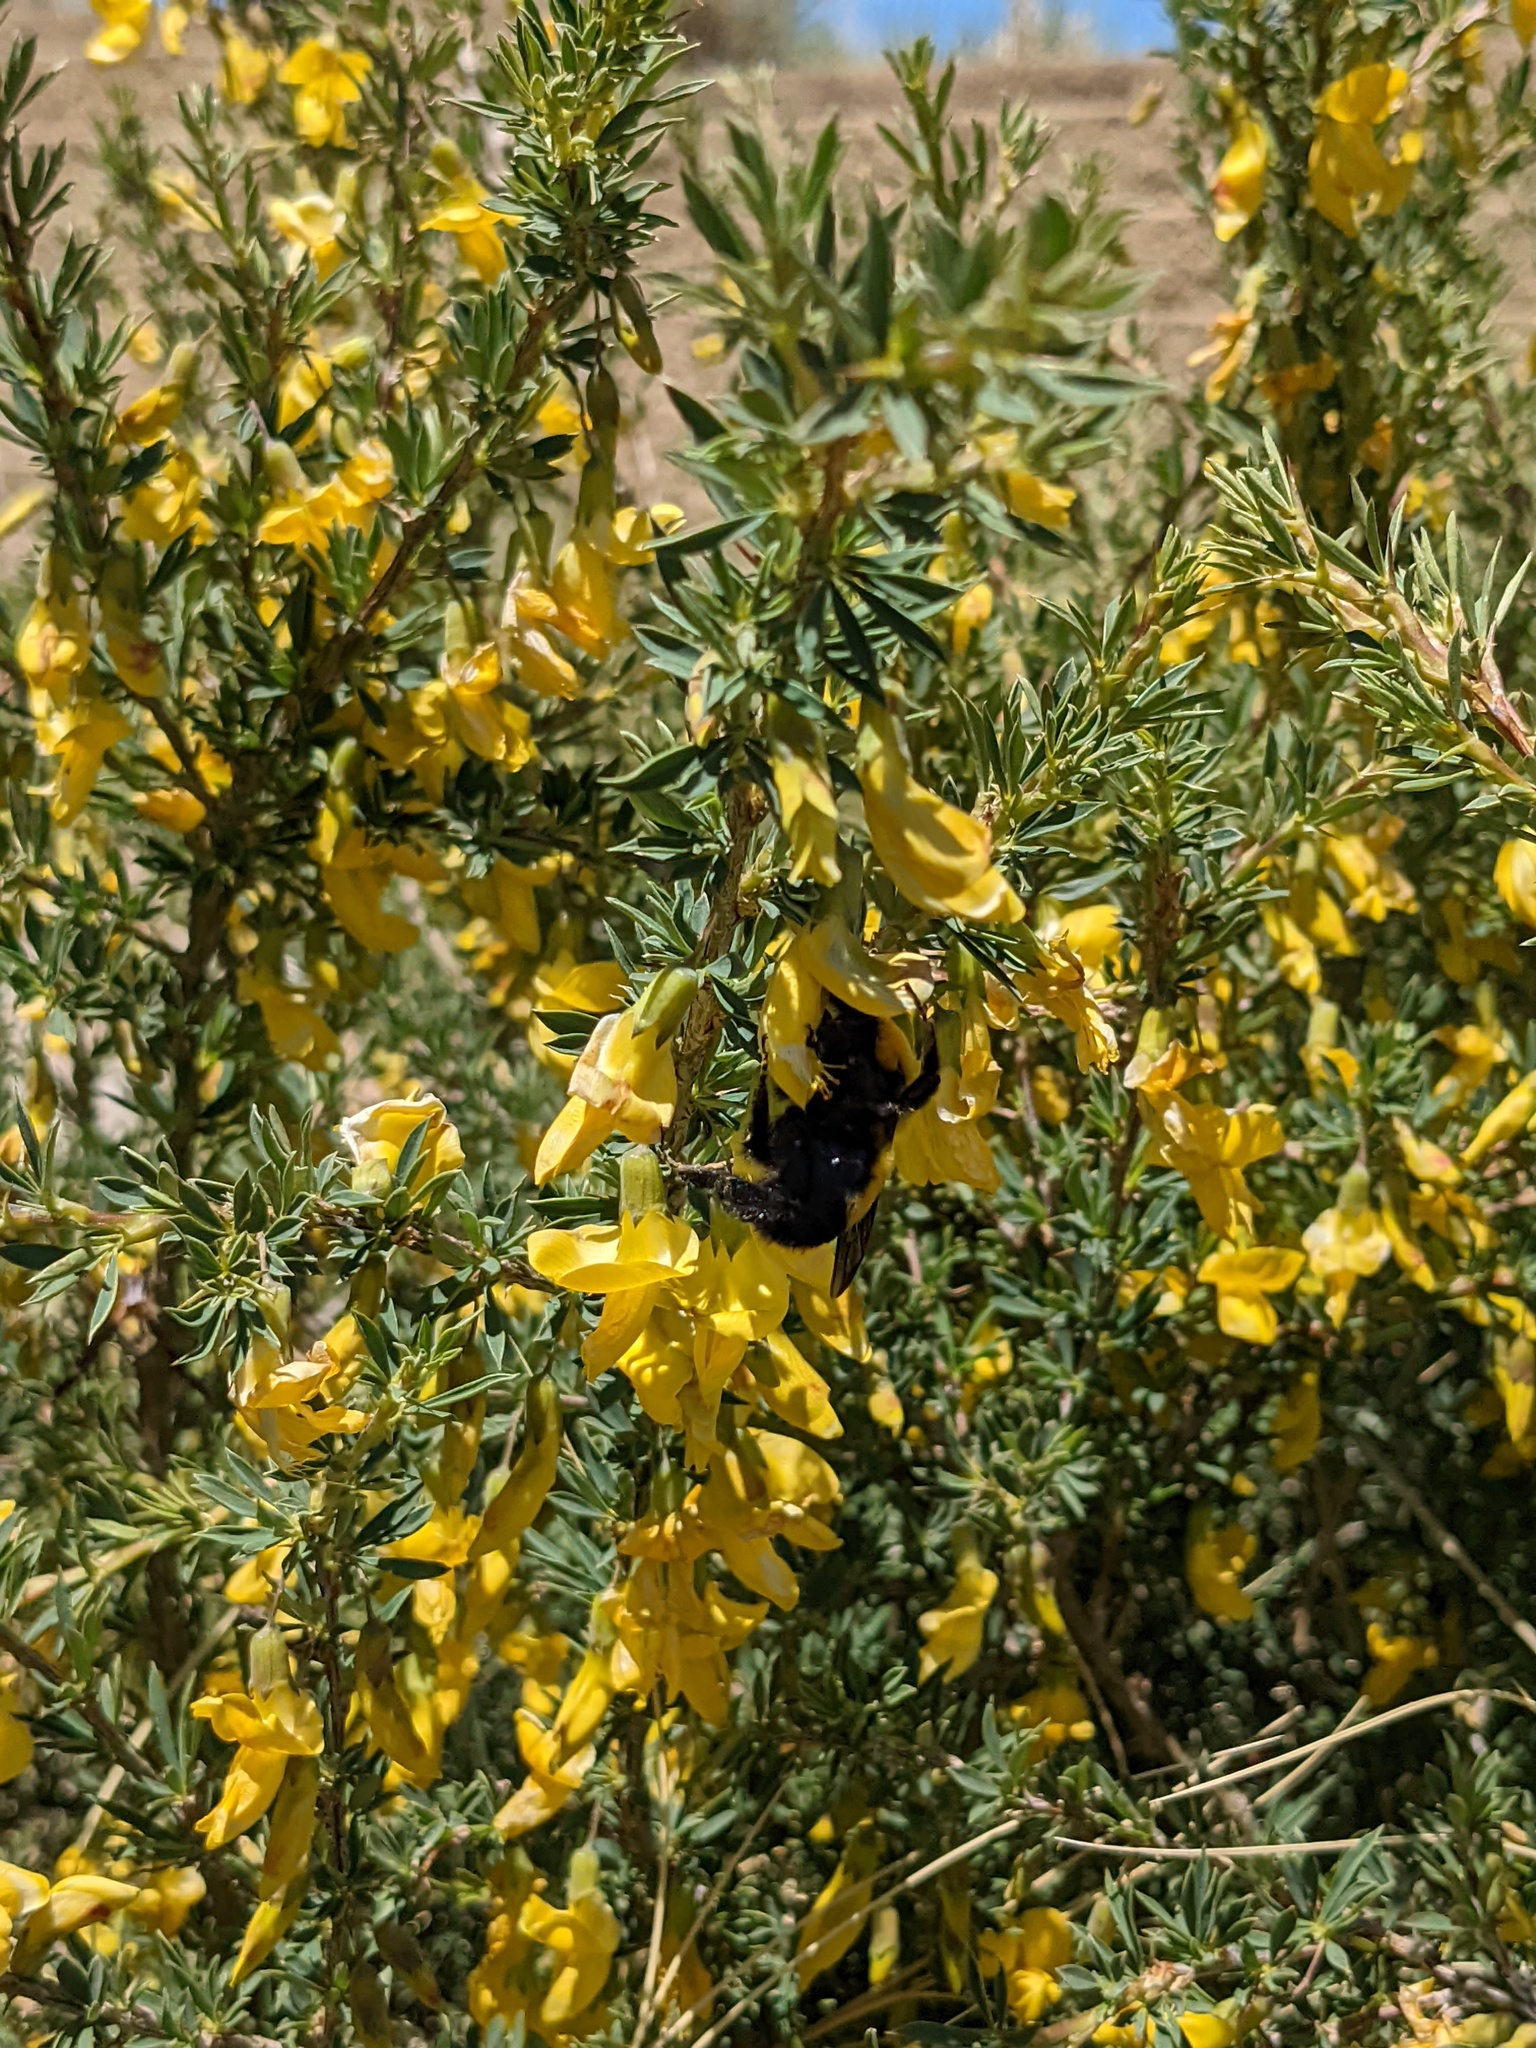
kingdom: Animalia
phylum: Arthropoda
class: Insecta
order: Hymenoptera
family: Apidae
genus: Bombus
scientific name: Bombus morrisoni
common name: Morrison bumble bee
